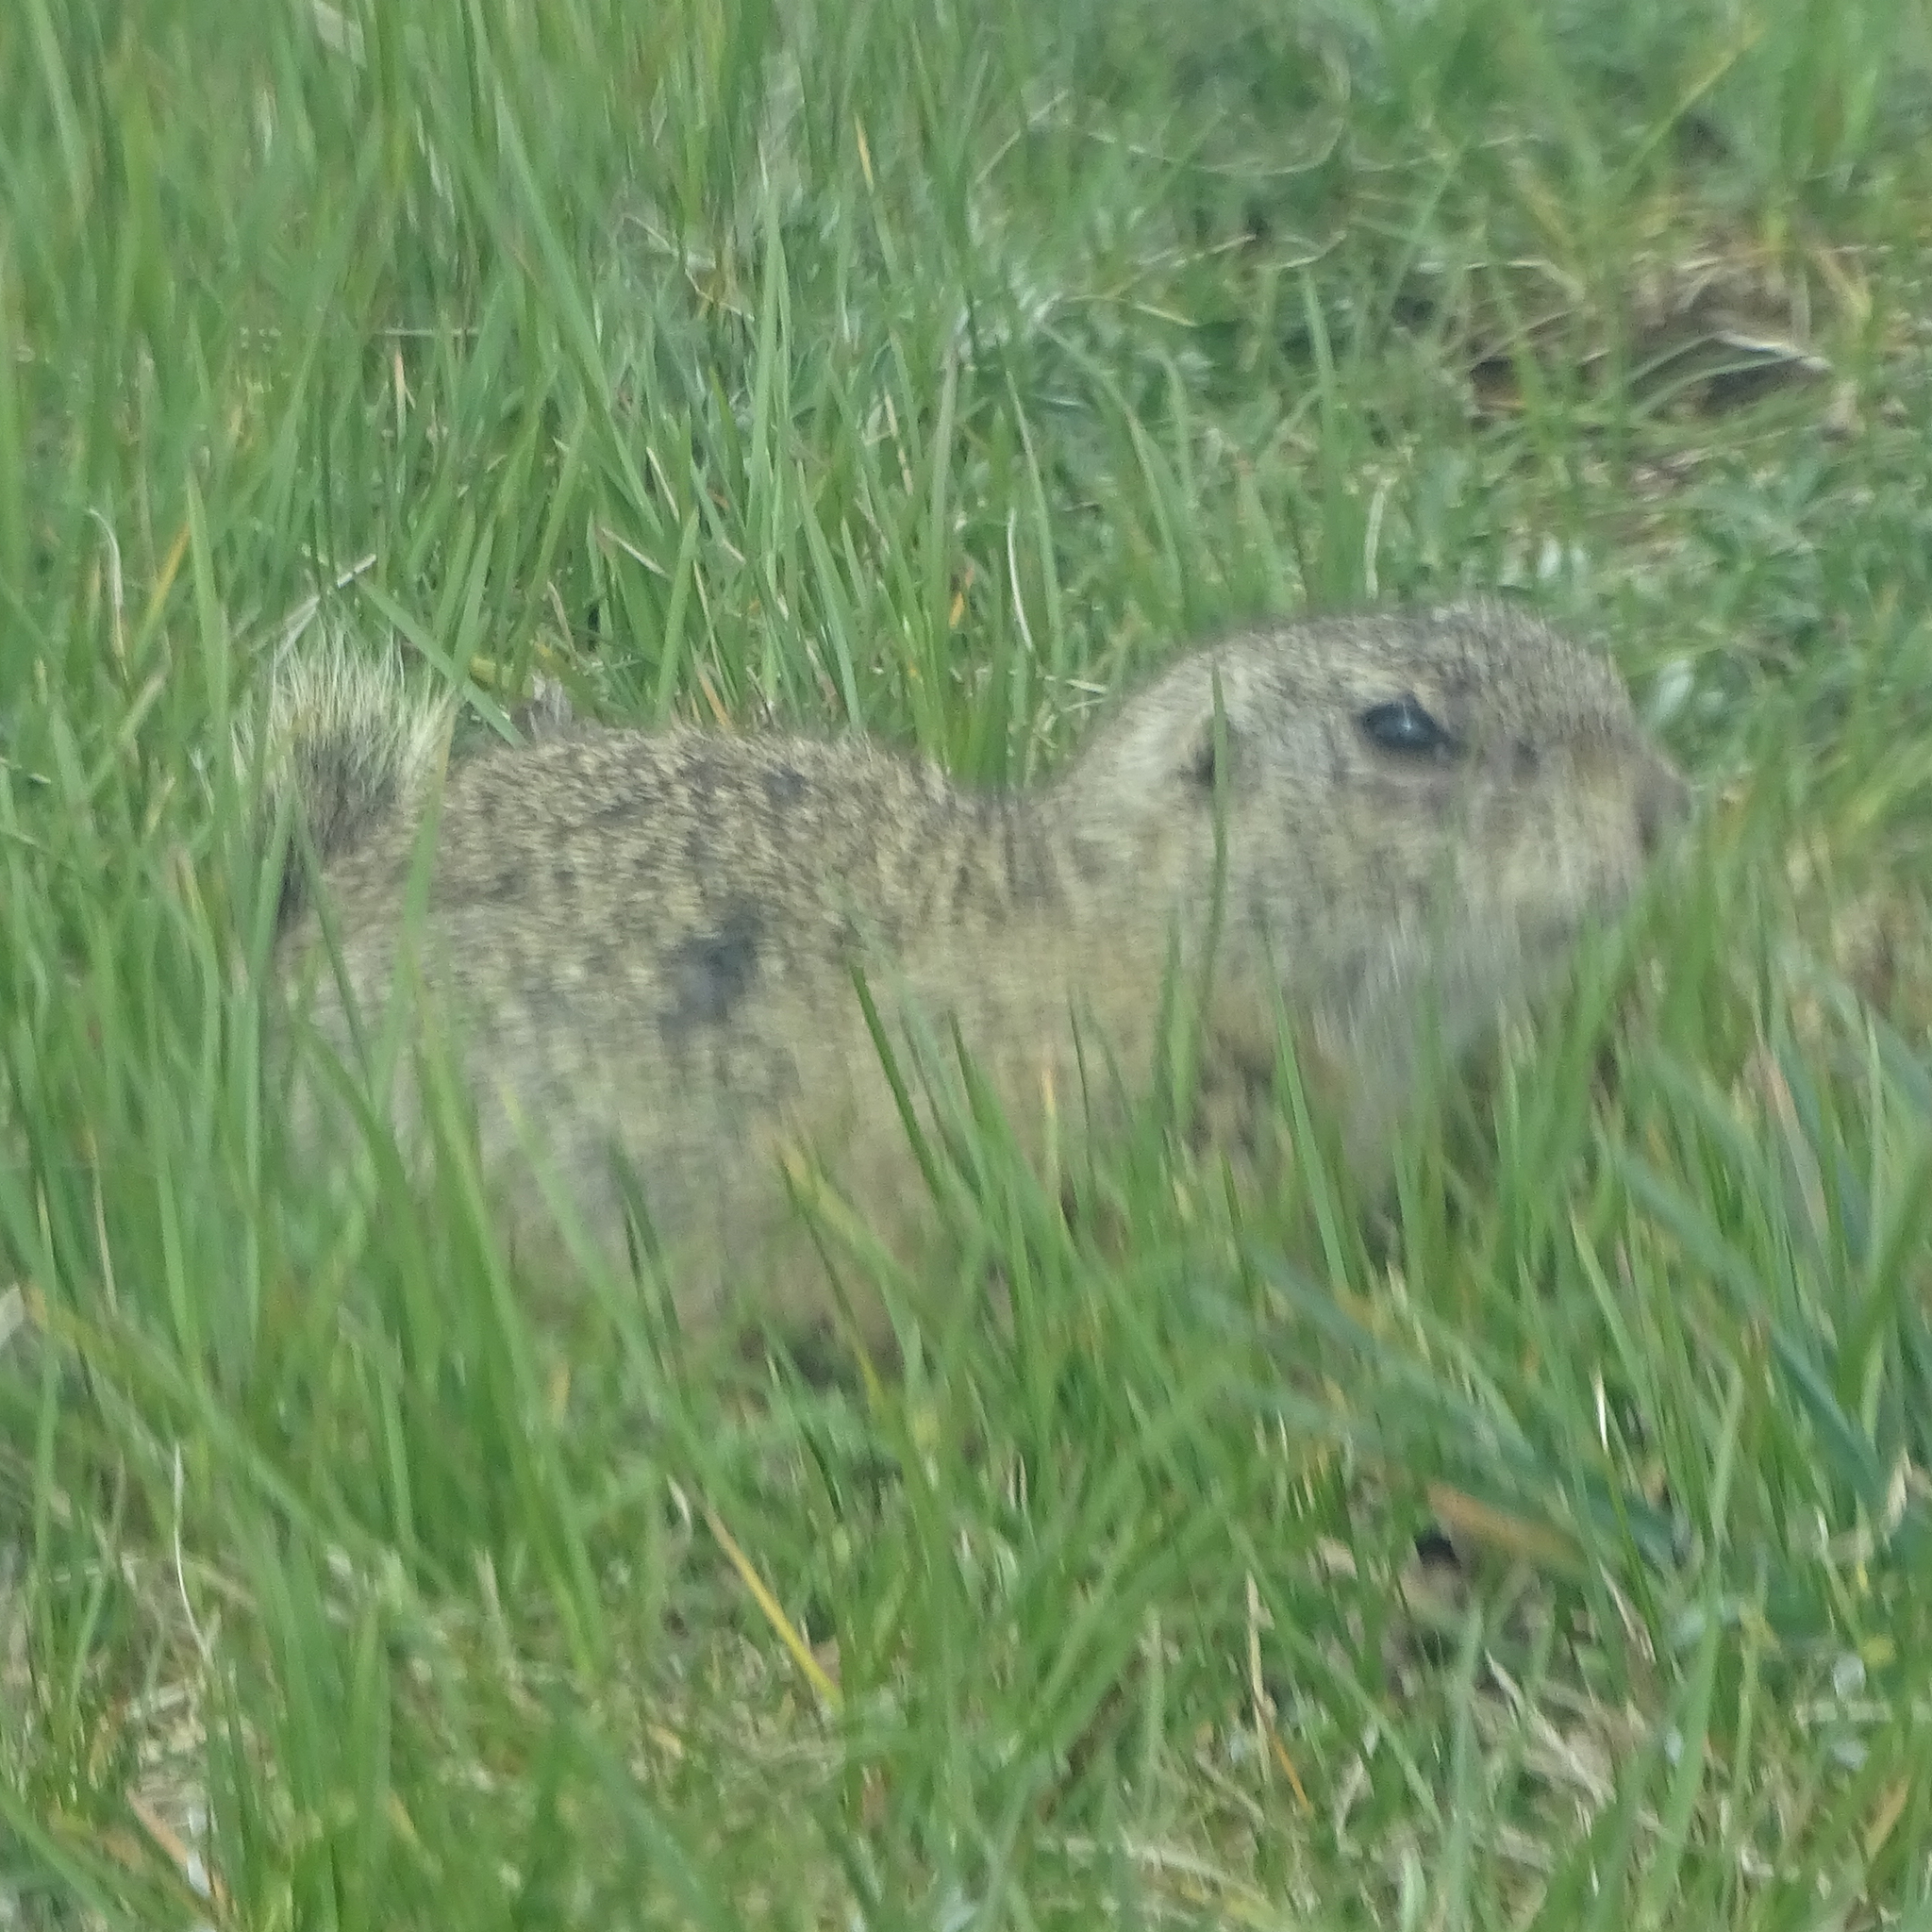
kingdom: Animalia
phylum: Chordata
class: Mammalia
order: Rodentia
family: Sciuridae
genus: Spermophilus
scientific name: Spermophilus citellus
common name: European ground squirrel
